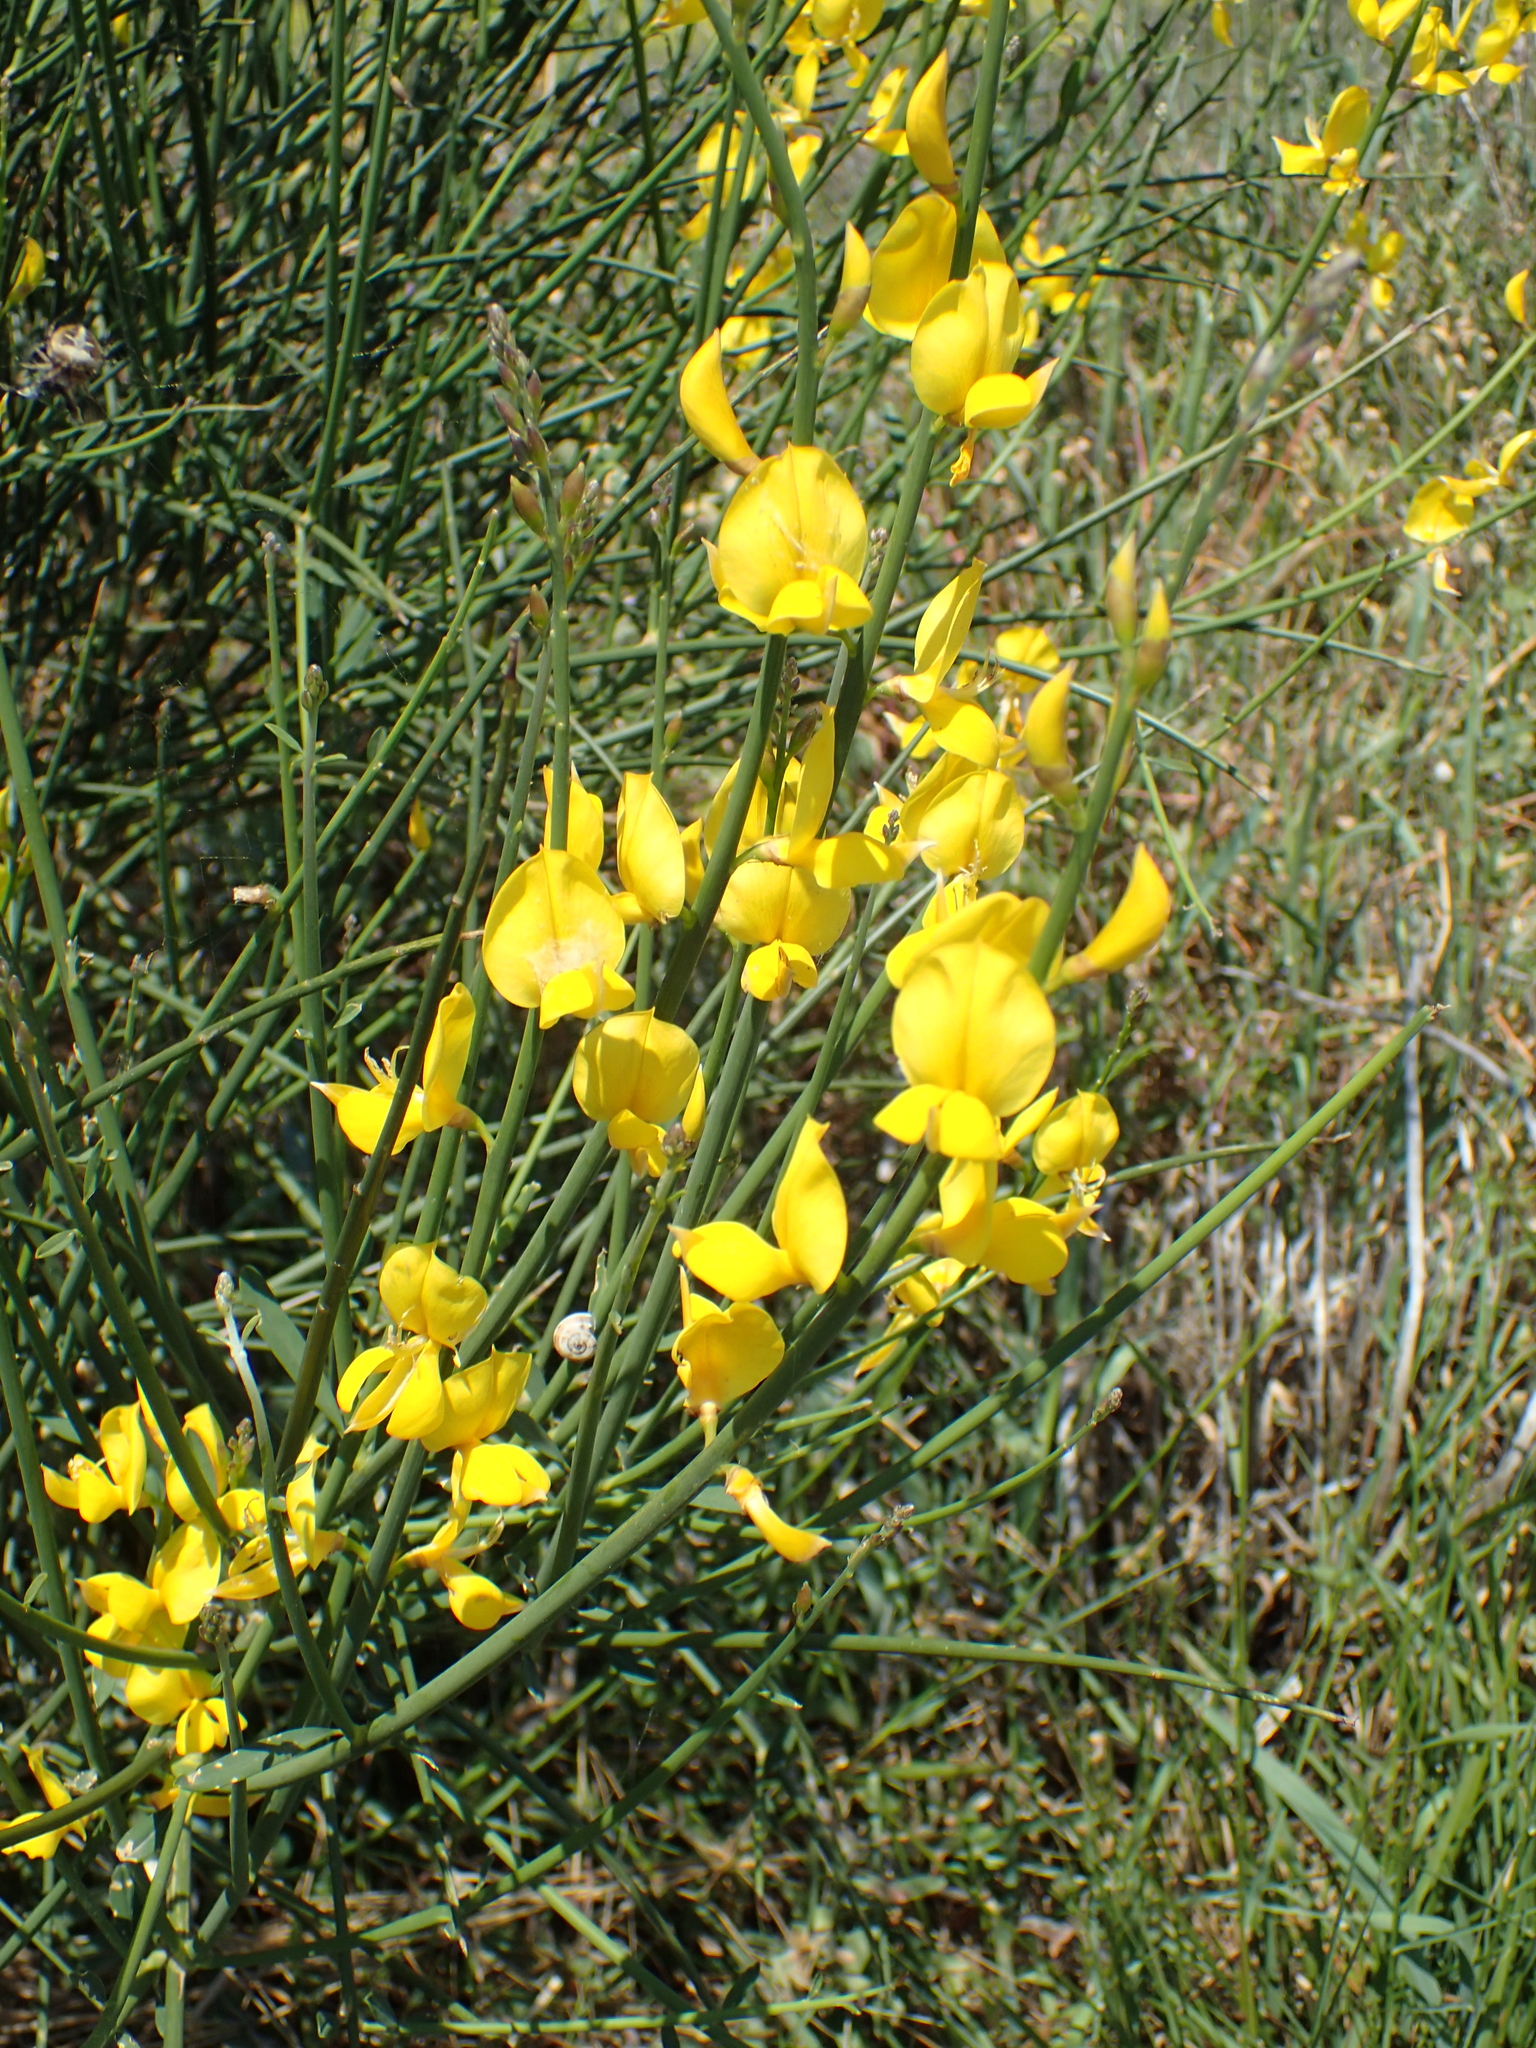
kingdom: Plantae
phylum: Tracheophyta
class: Magnoliopsida
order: Fabales
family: Fabaceae
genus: Spartium
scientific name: Spartium junceum
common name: Spanish broom
